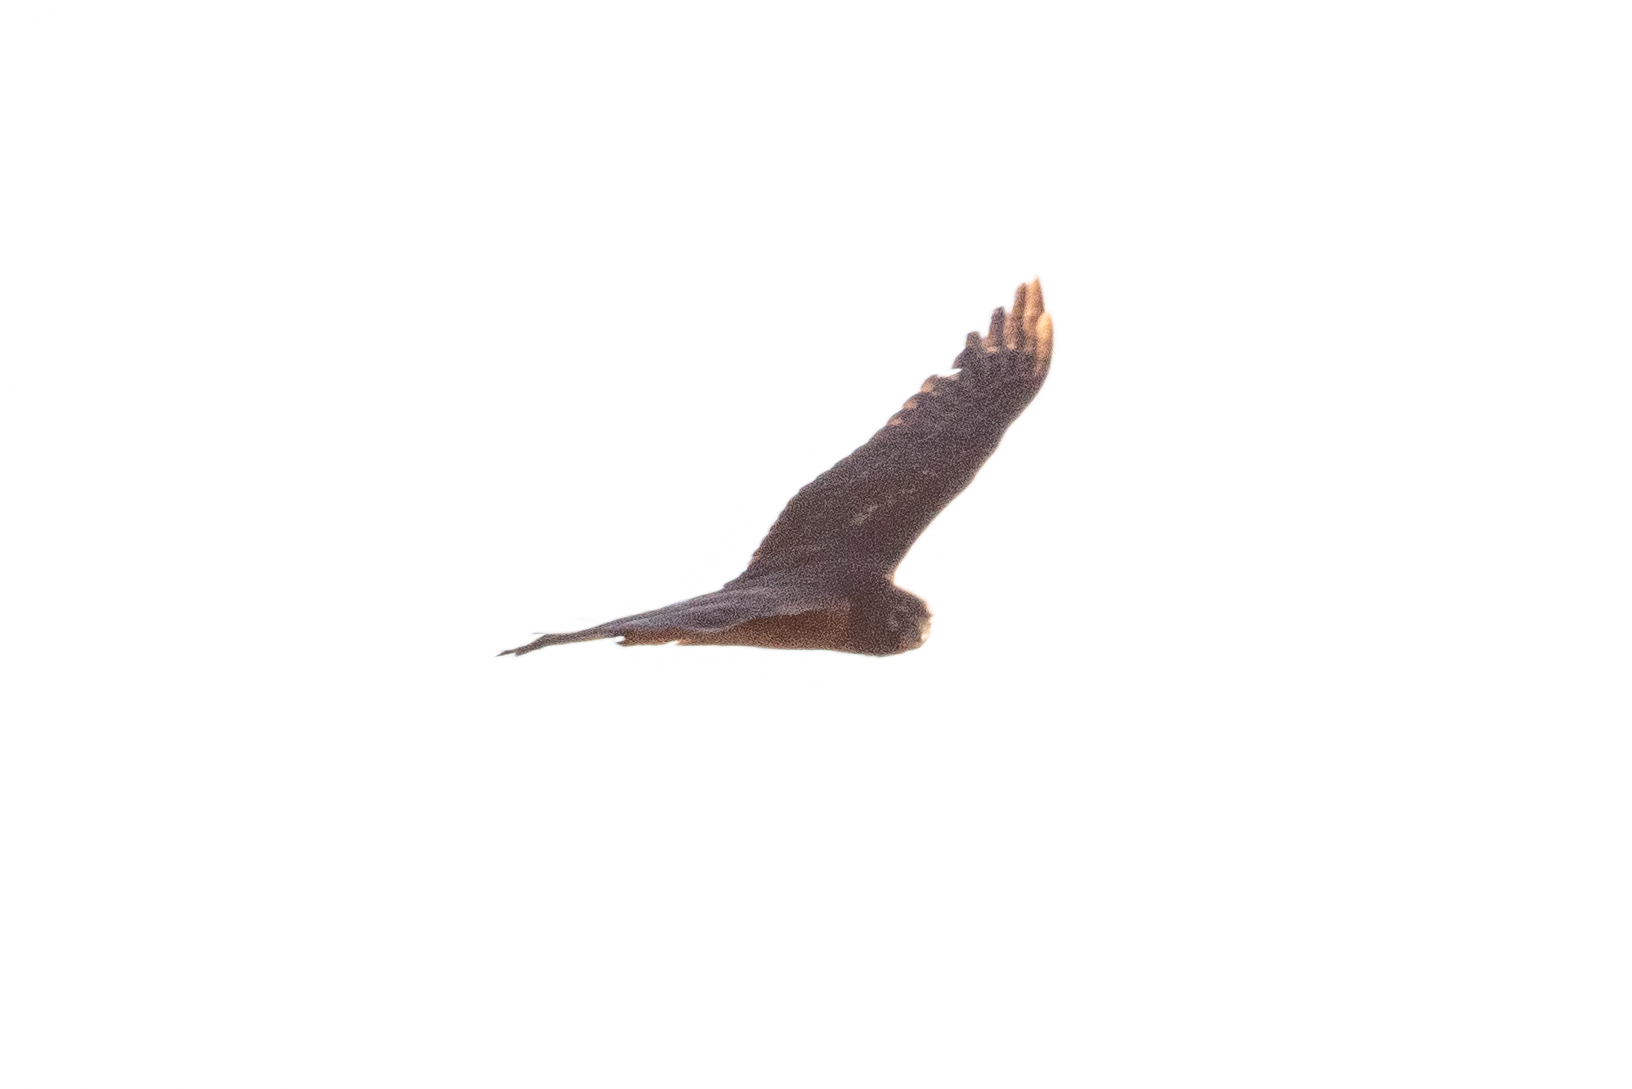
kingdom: Animalia
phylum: Chordata
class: Aves
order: Accipitriformes
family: Accipitridae
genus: Circus
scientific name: Circus cyaneus
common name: Hen harrier
